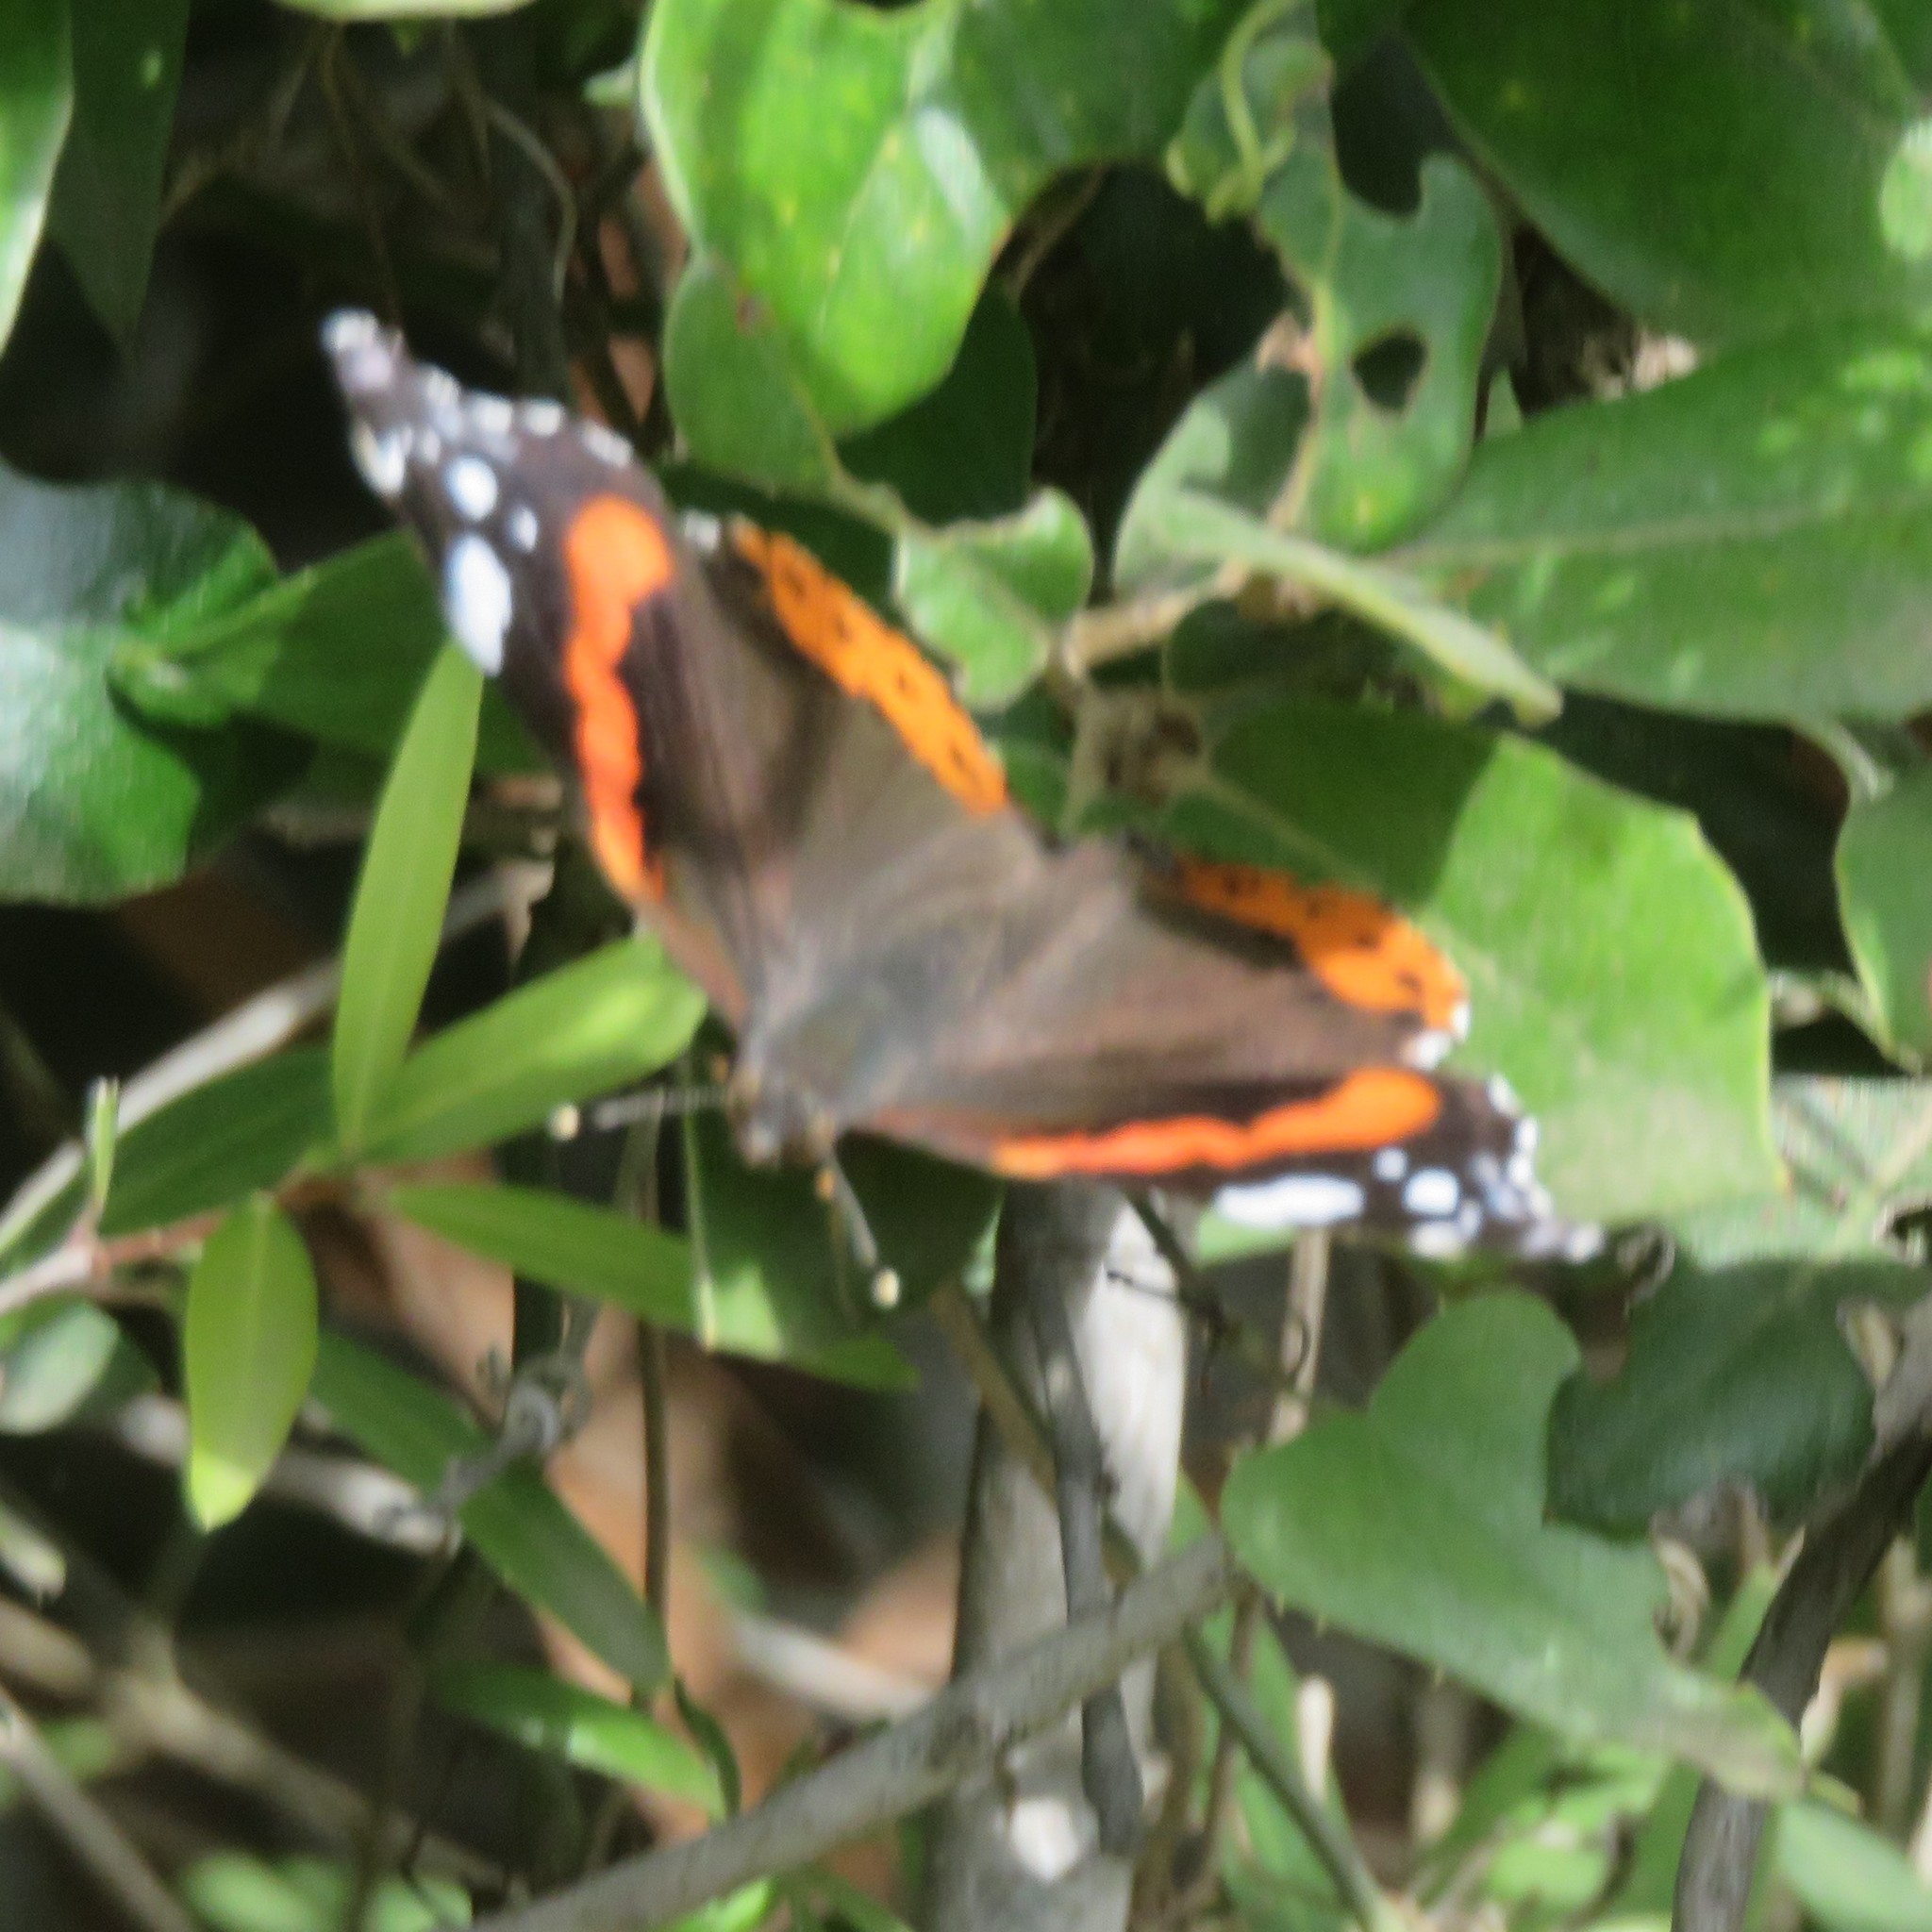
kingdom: Animalia
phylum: Arthropoda
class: Insecta
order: Lepidoptera
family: Nymphalidae
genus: Vanessa
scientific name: Vanessa atalanta
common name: Red admiral
